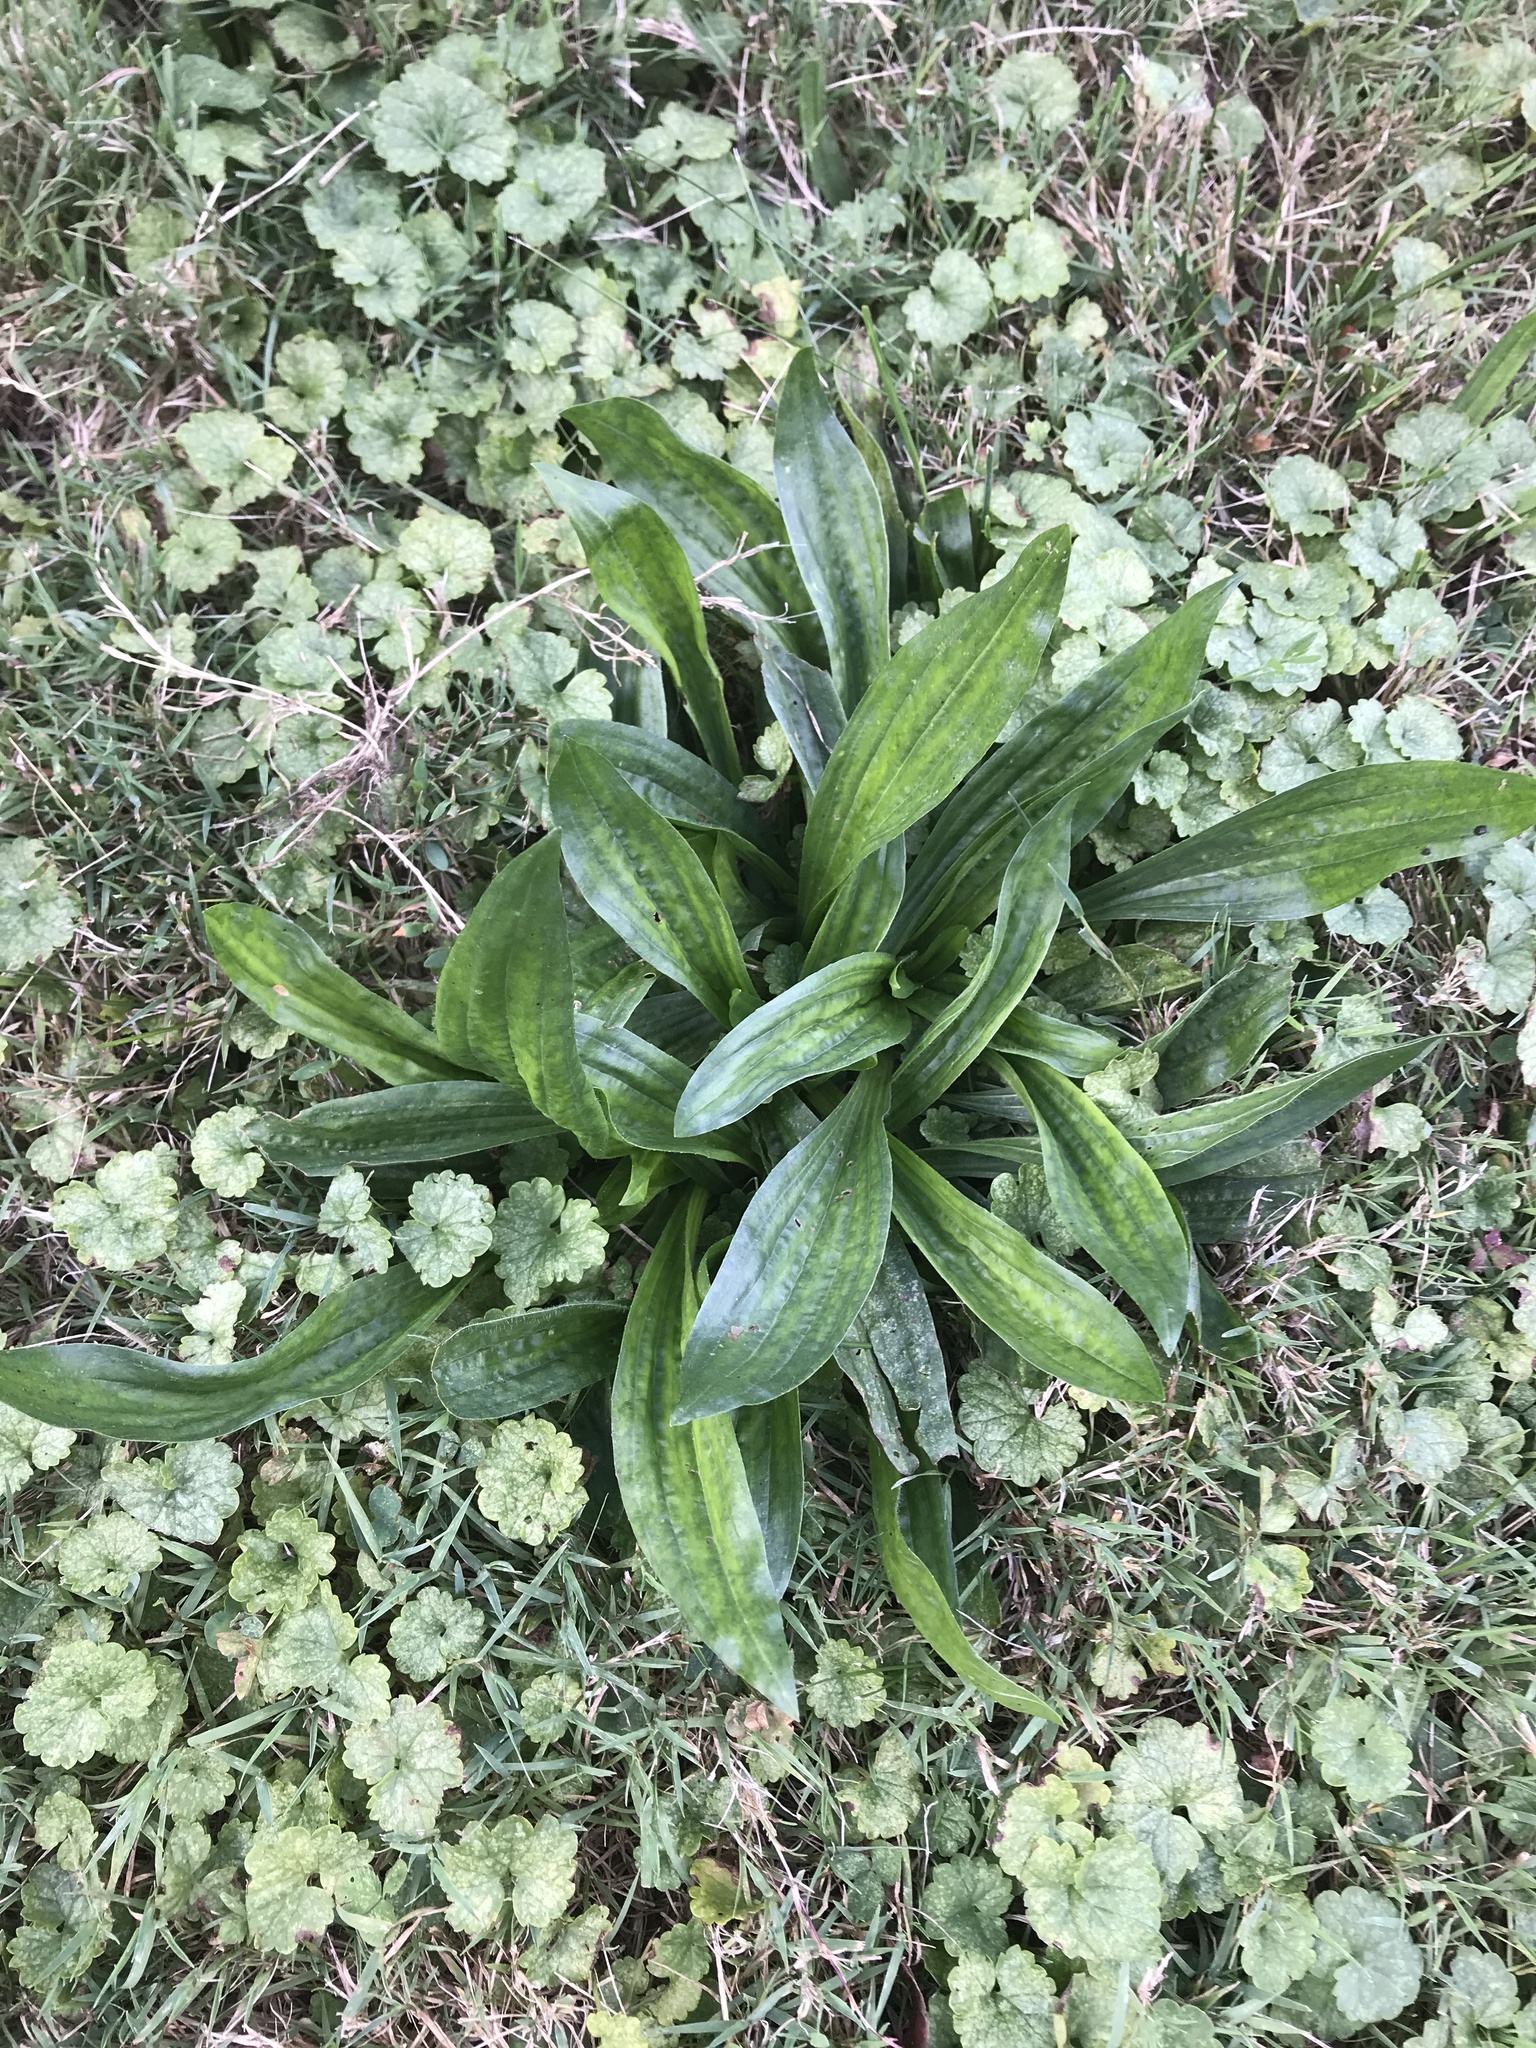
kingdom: Plantae
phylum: Tracheophyta
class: Magnoliopsida
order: Lamiales
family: Plantaginaceae
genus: Plantago
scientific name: Plantago lanceolata
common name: Ribwort plantain
